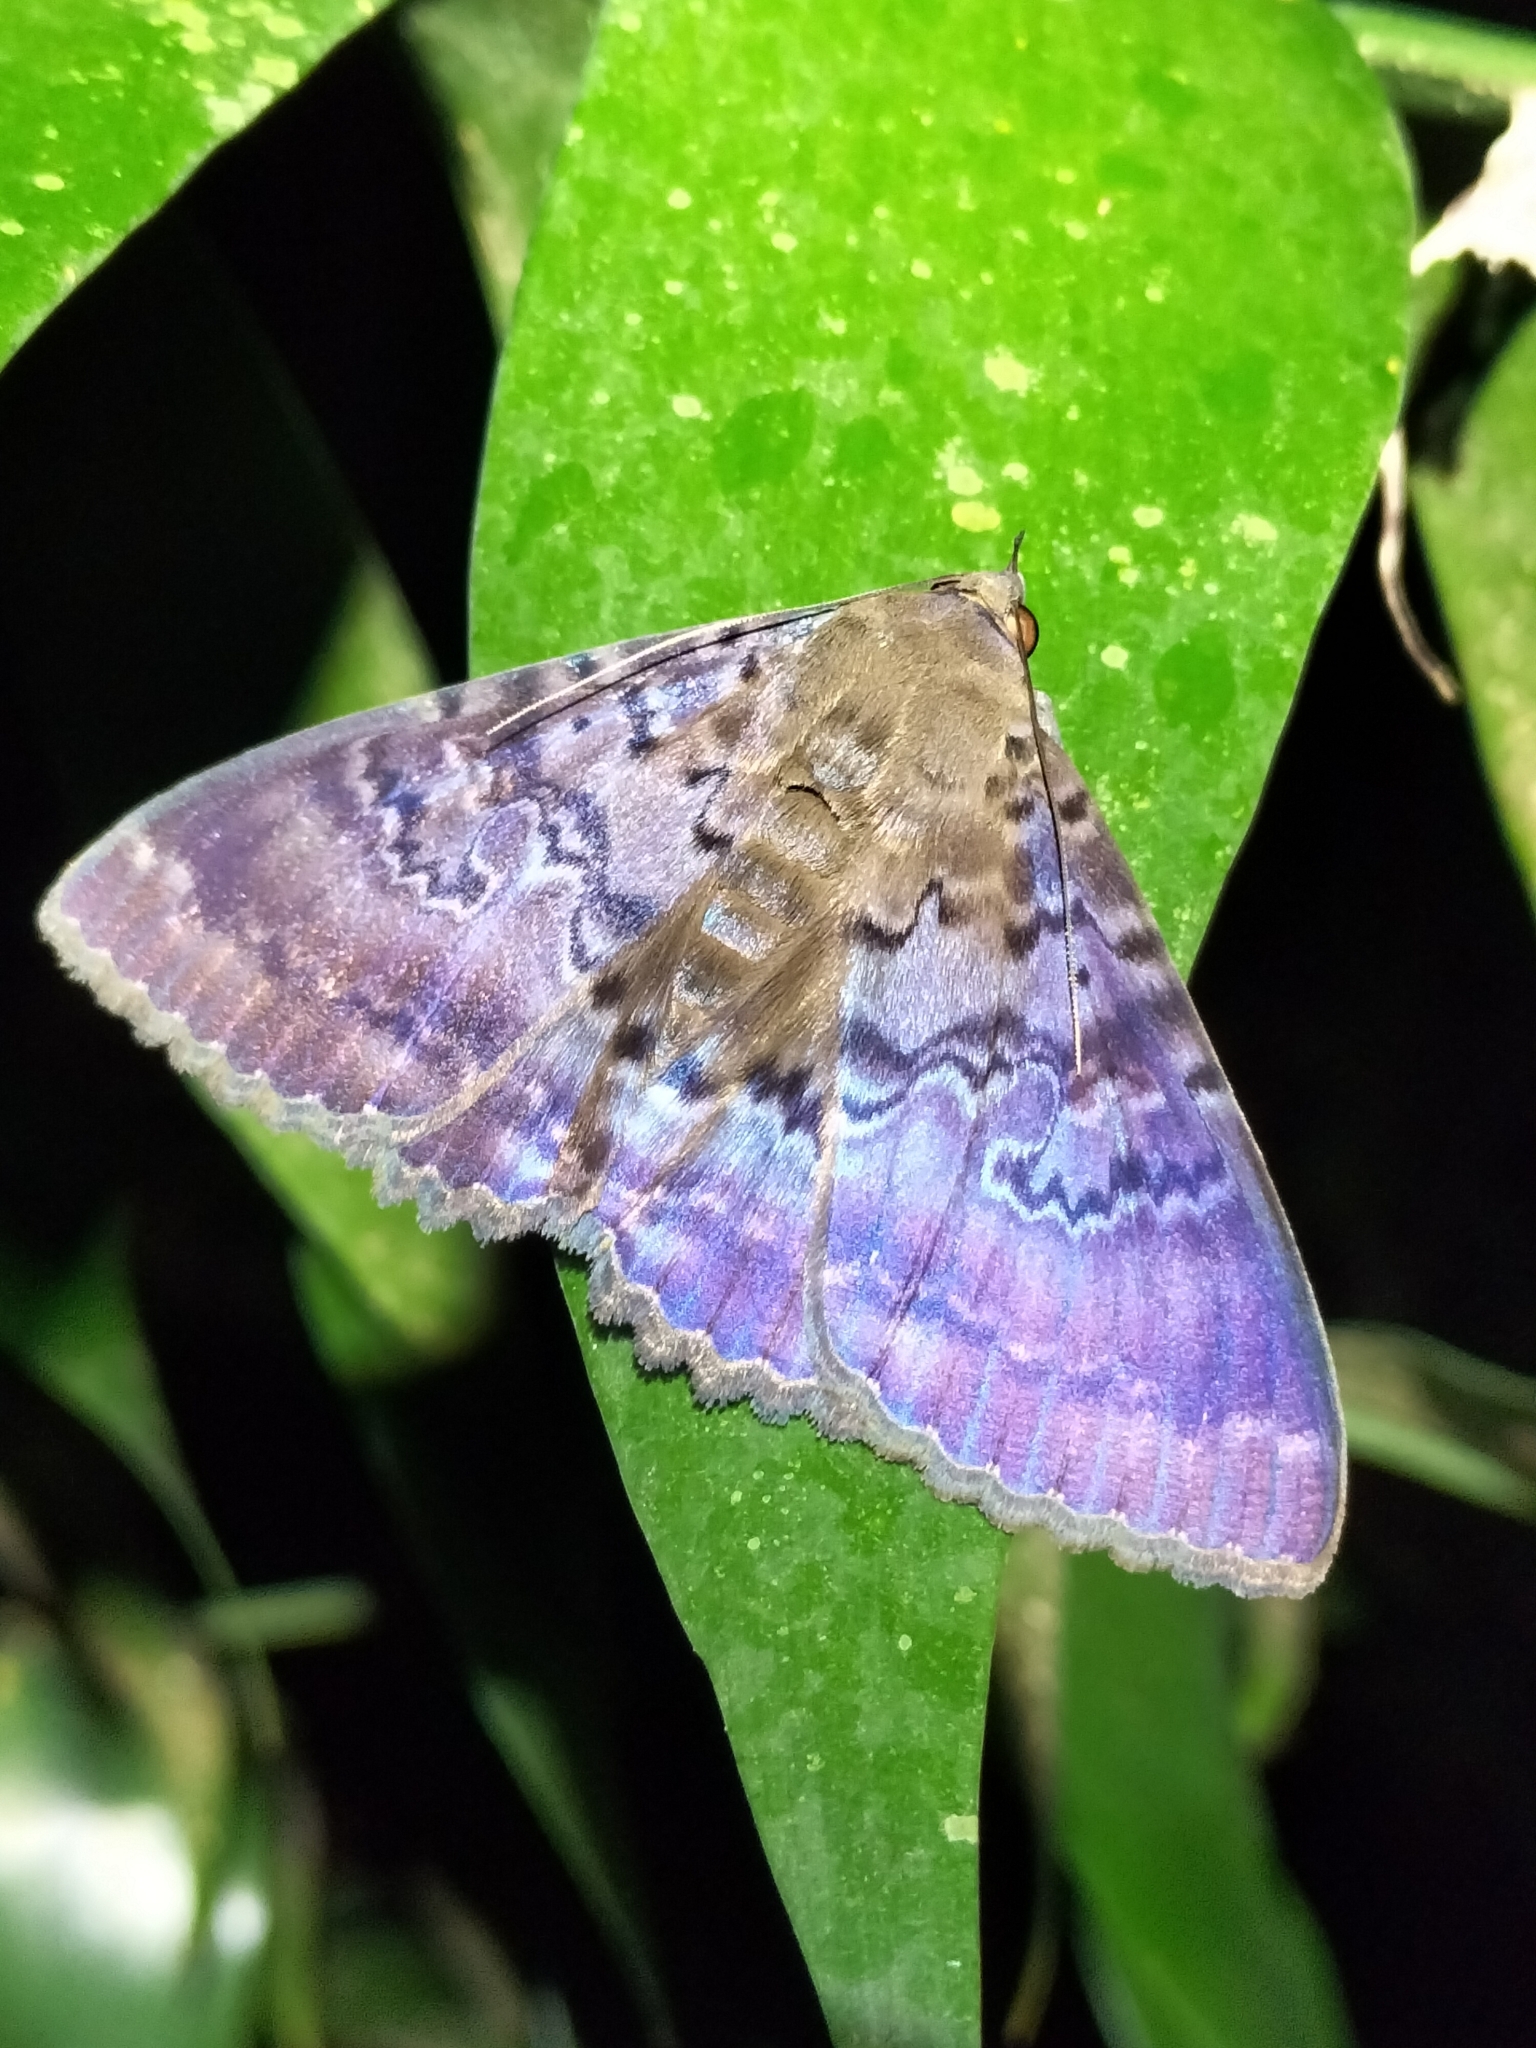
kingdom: Animalia
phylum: Arthropoda
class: Insecta
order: Lepidoptera
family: Erebidae
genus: Speiredonia
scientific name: Speiredonia mutabilis
